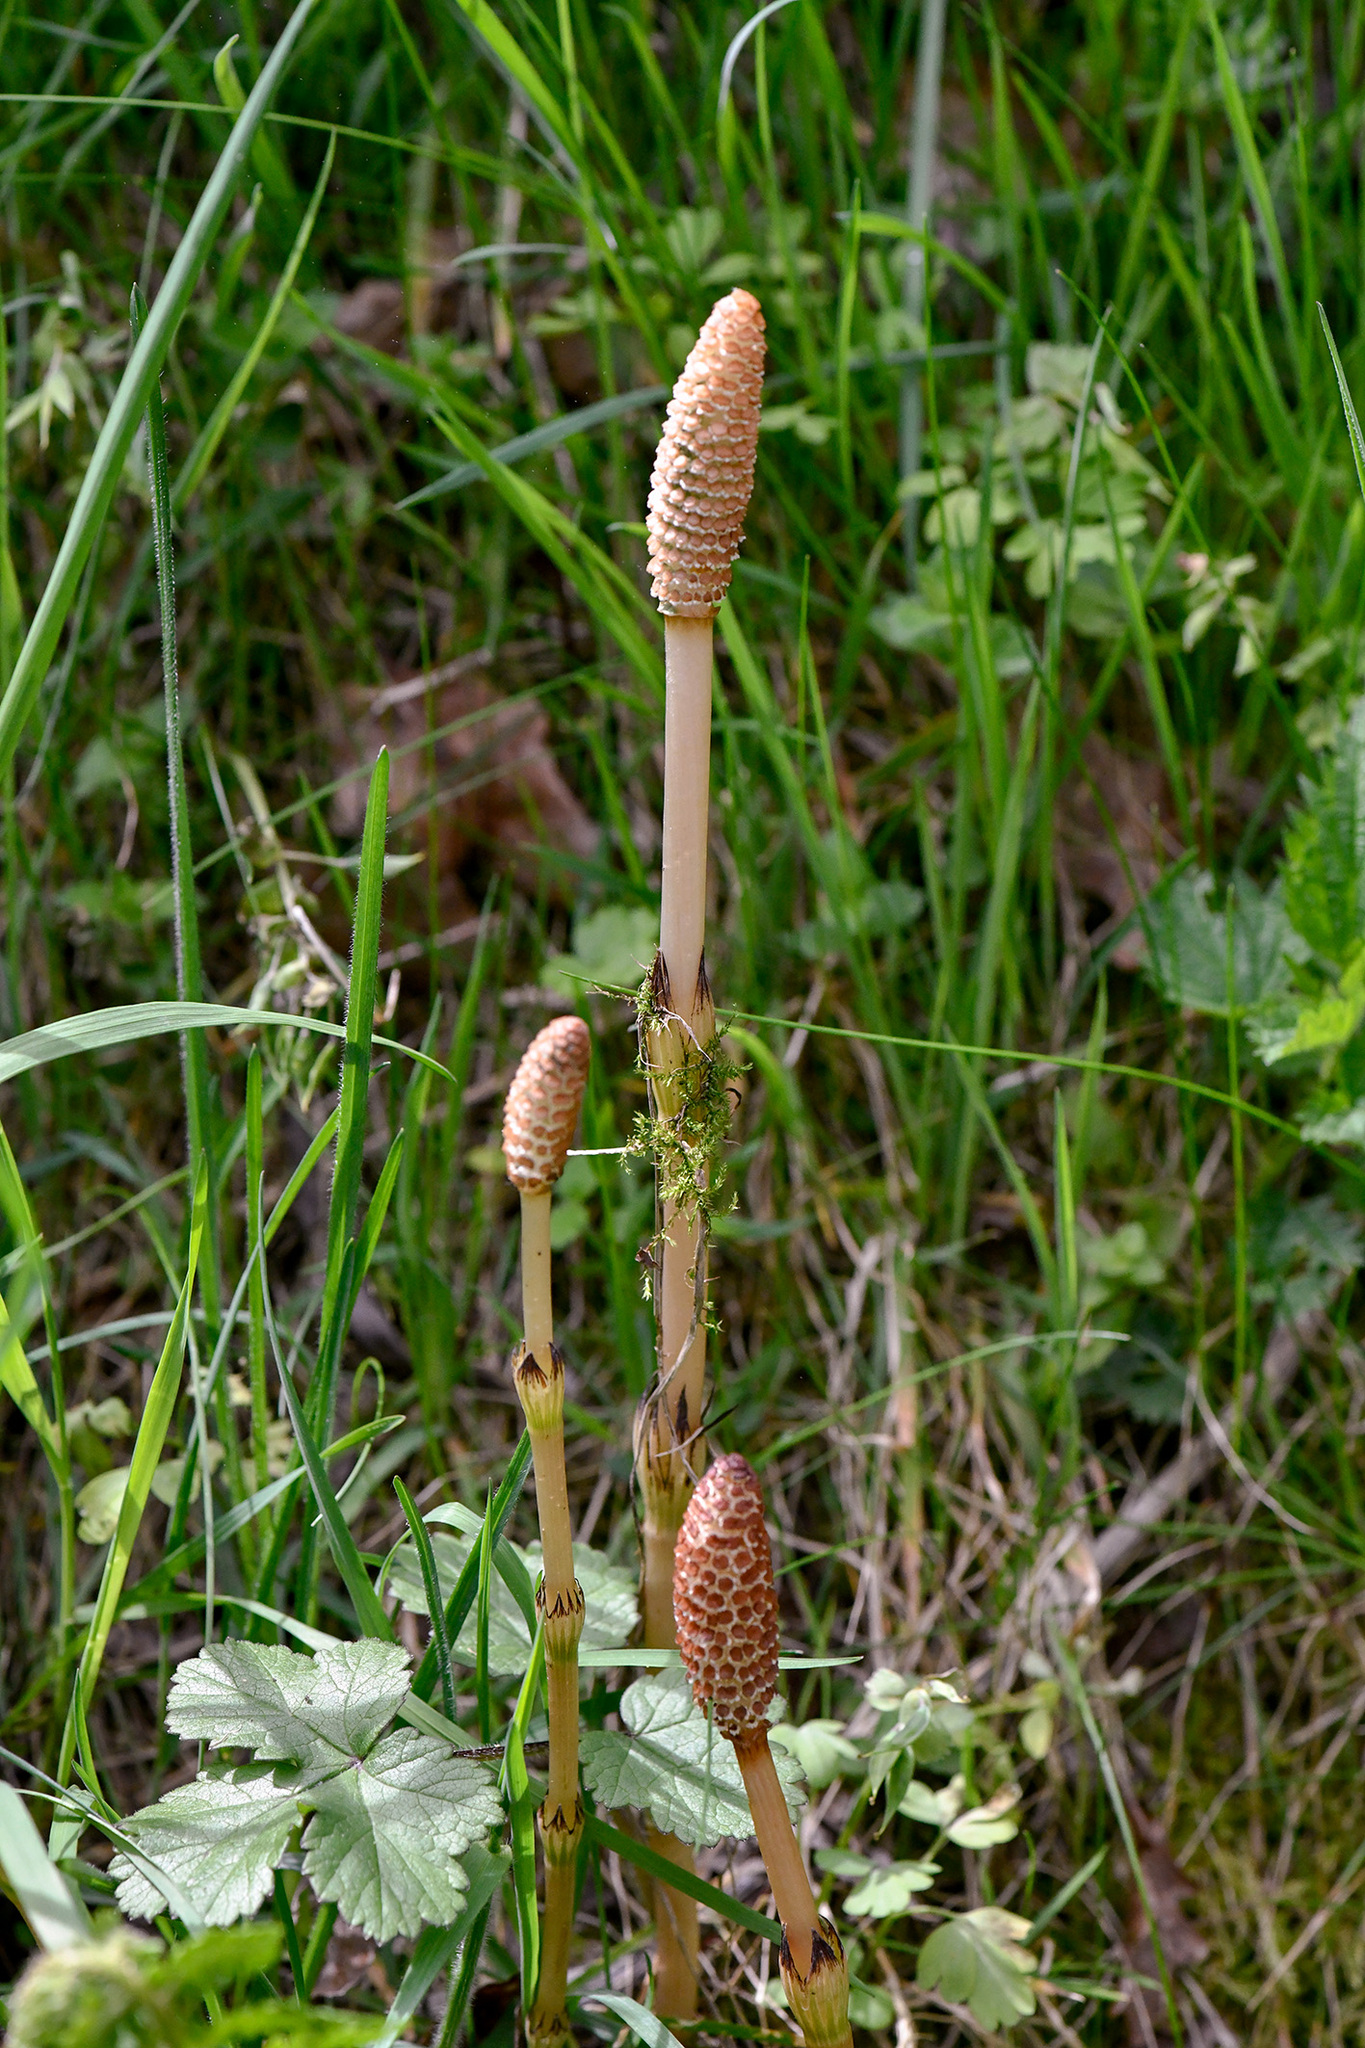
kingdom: Plantae
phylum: Tracheophyta
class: Polypodiopsida
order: Equisetales
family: Equisetaceae
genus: Equisetum
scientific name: Equisetum arvense
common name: Field horsetail
